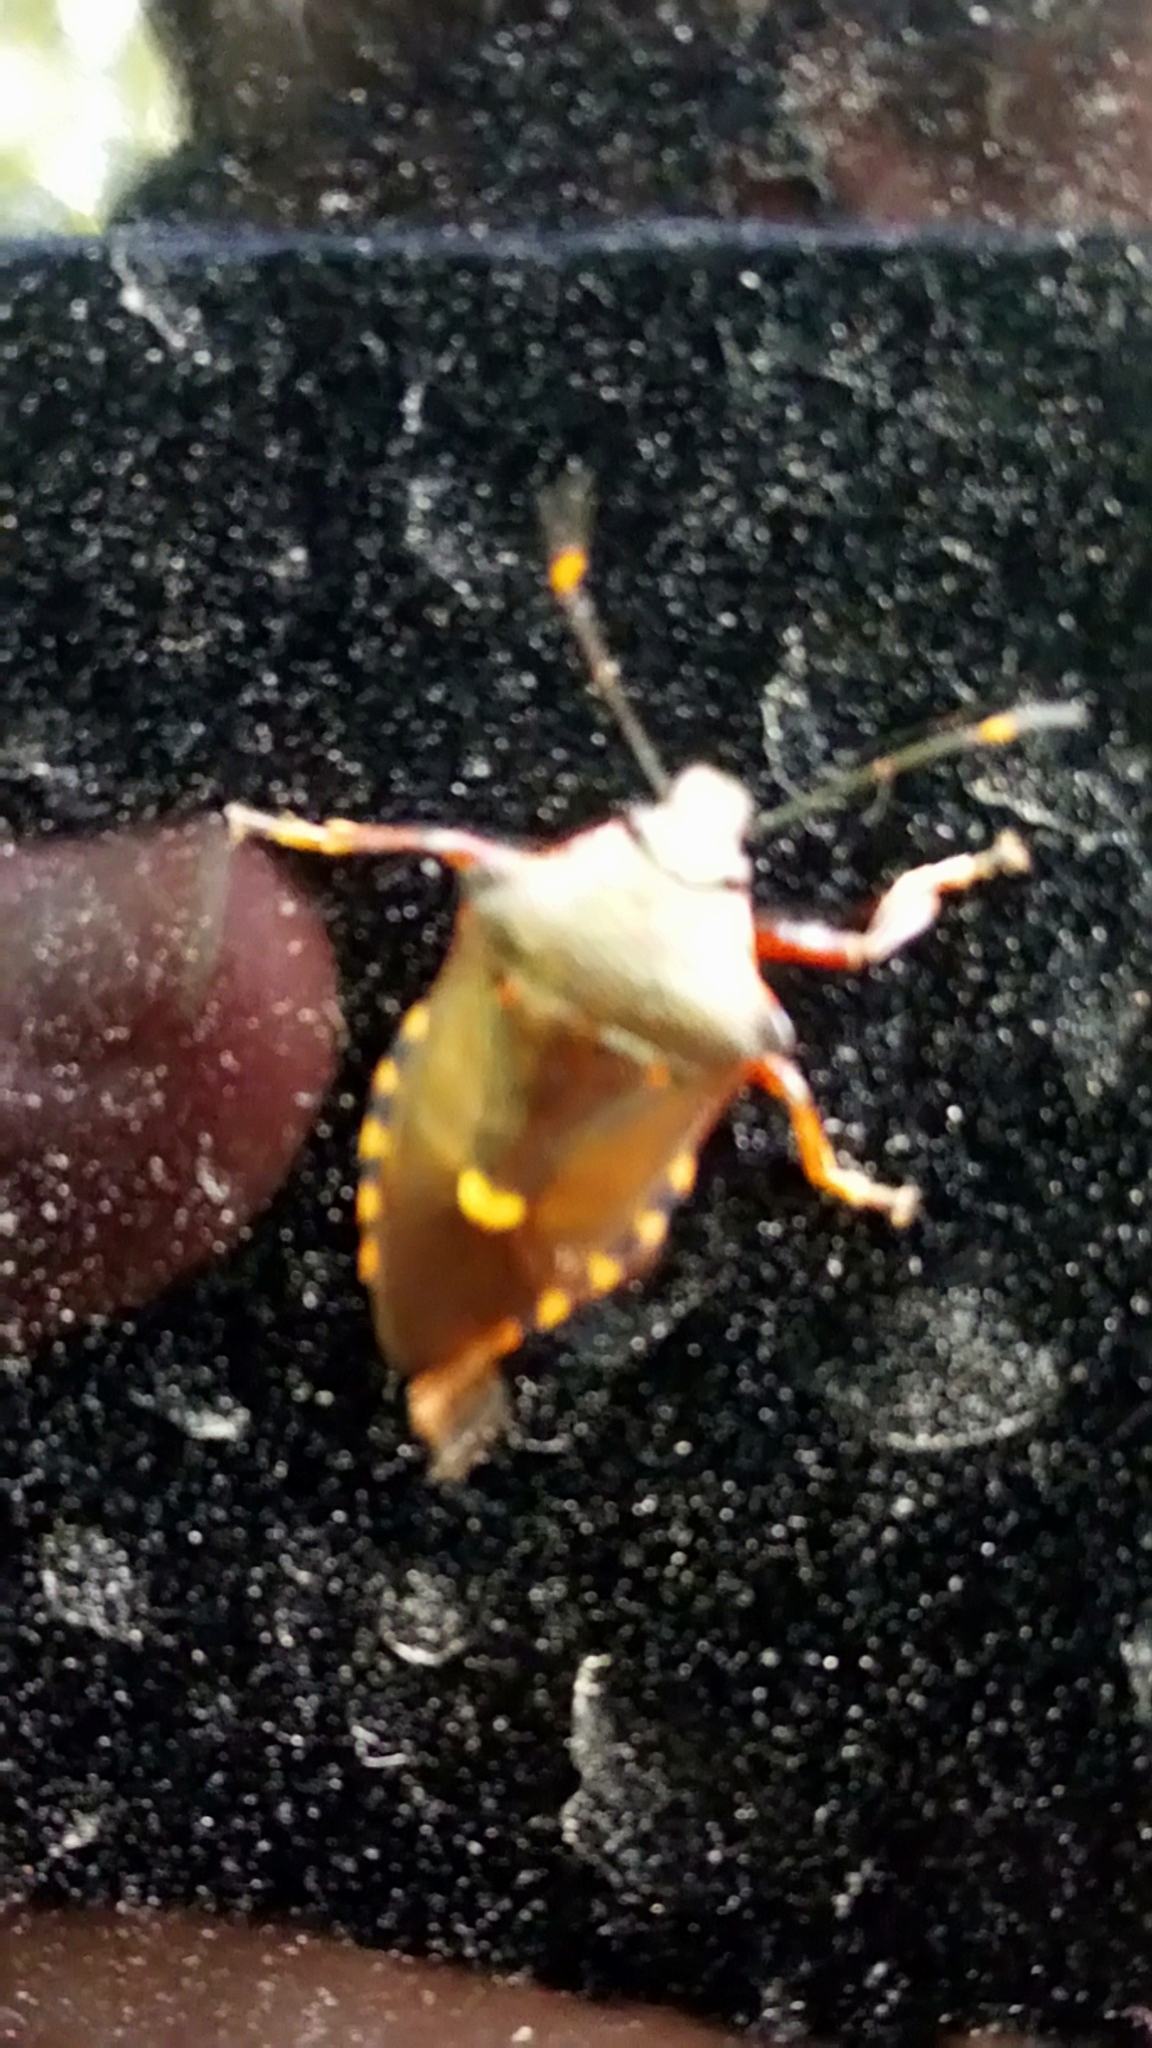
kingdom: Animalia
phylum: Arthropoda
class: Insecta
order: Hemiptera
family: Pentatomidae
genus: Pinthaeus
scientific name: Pinthaeus sanguinipes
